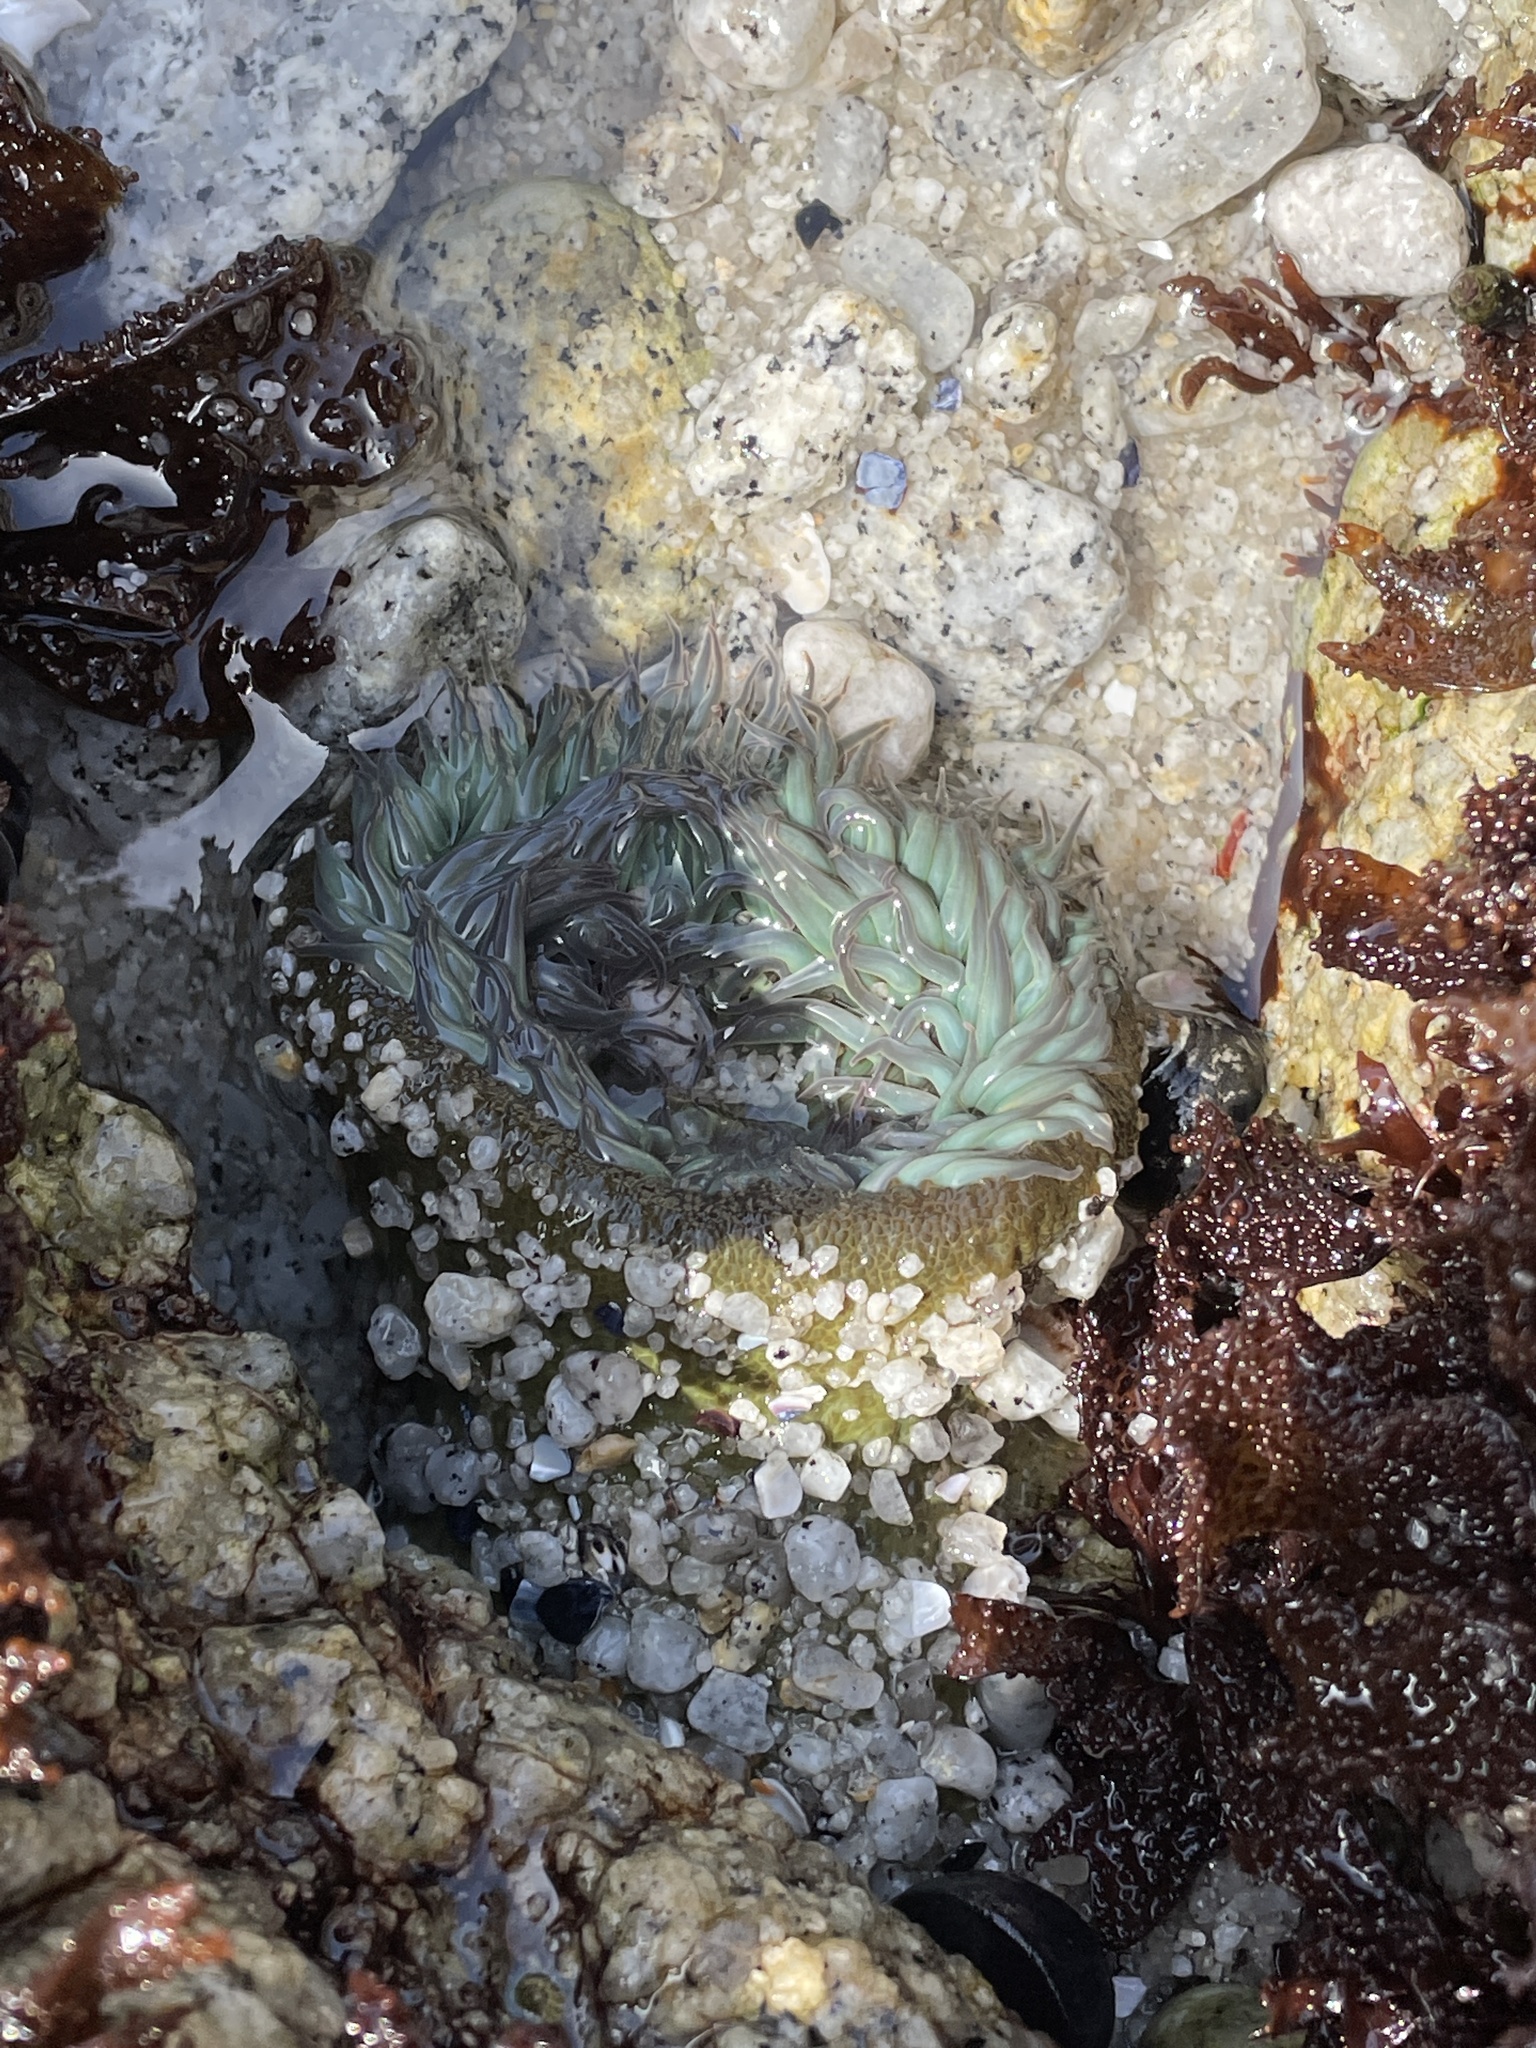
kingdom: Animalia
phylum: Cnidaria
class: Anthozoa
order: Actiniaria
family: Actiniidae
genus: Anthopleura
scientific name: Anthopleura sola
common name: Sun anemone
